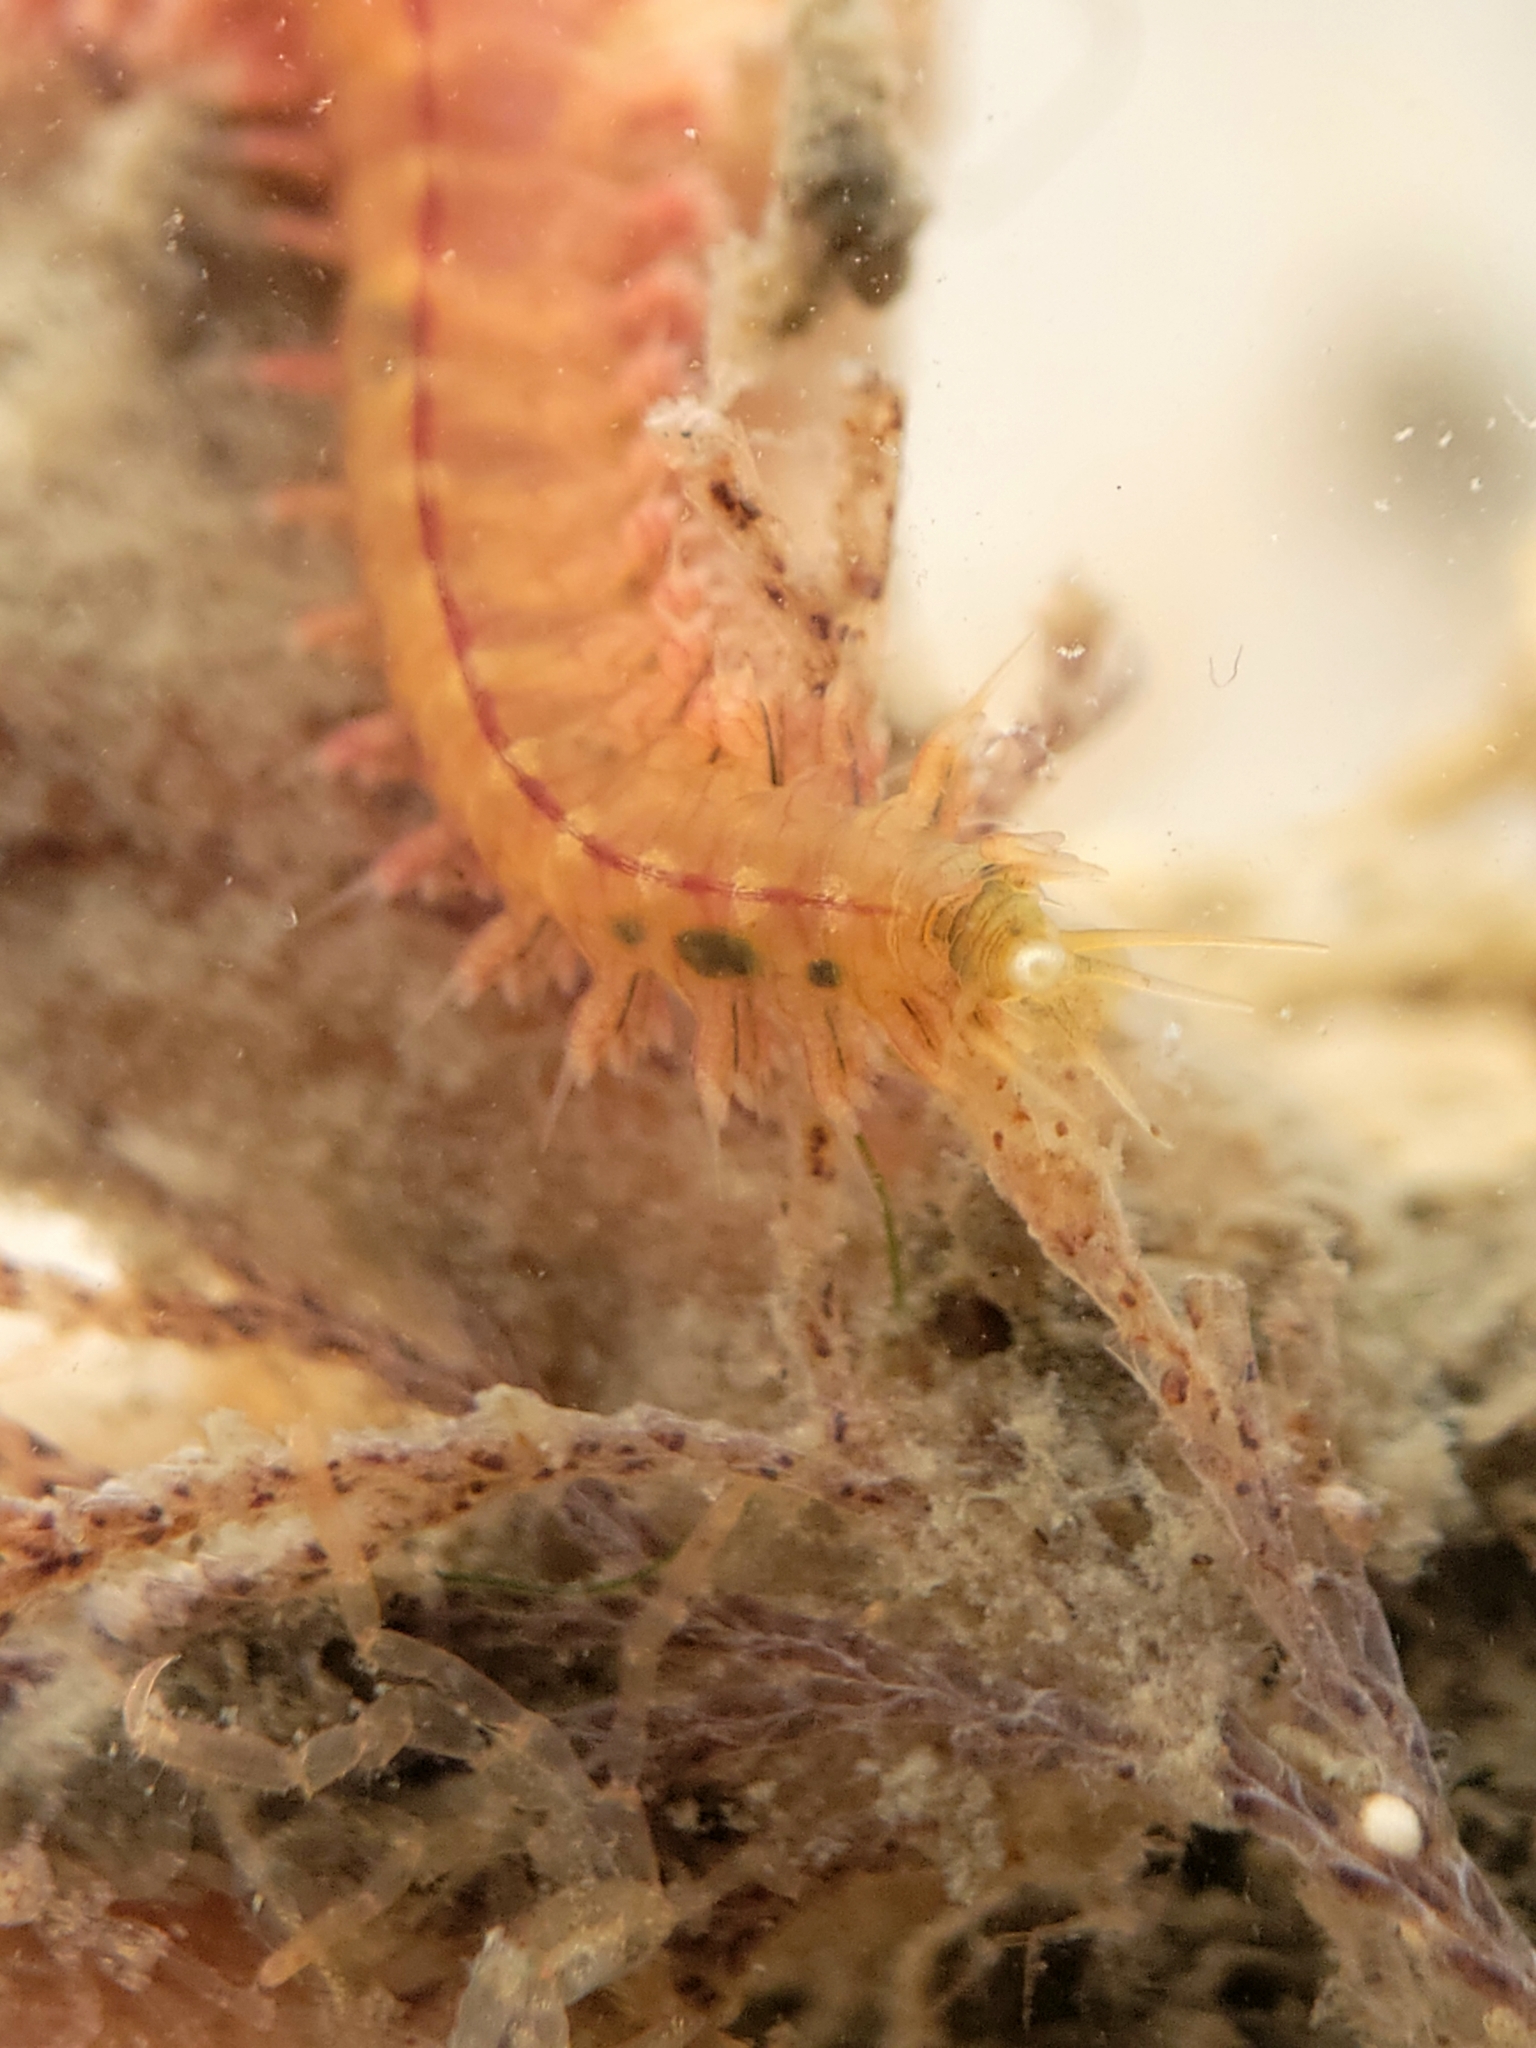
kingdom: Animalia
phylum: Annelida
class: Polychaeta
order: Phyllodocida
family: Nereididae
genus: Nereis
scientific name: Nereis eakini
